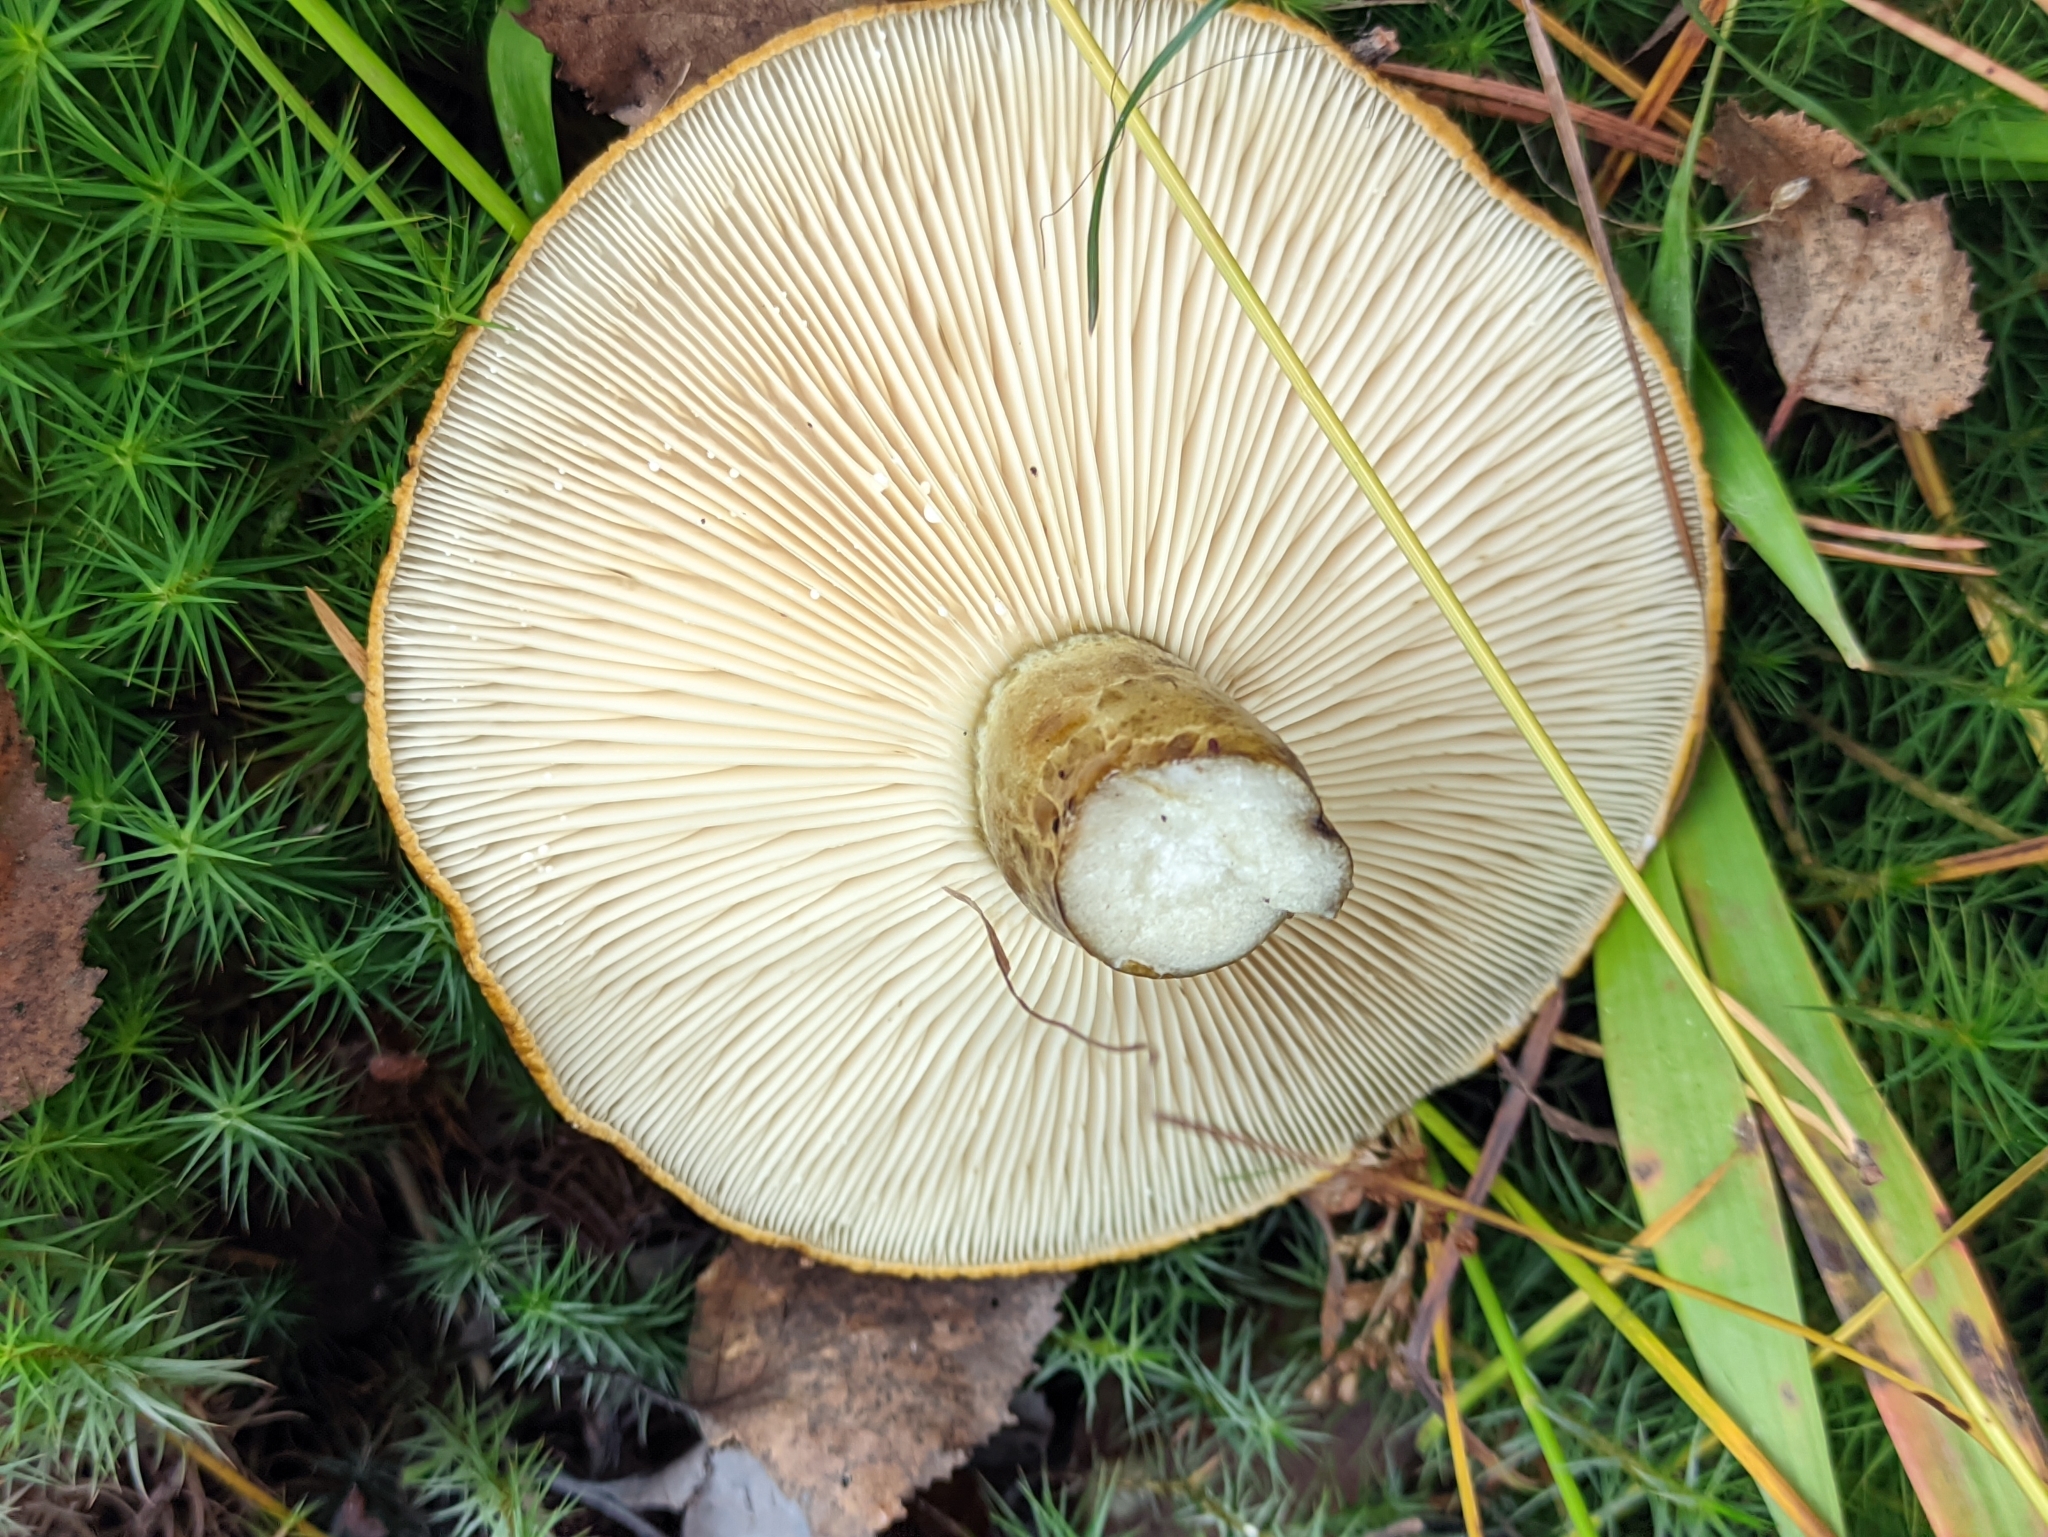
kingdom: Fungi
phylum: Basidiomycota
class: Agaricomycetes
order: Russulales
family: Russulaceae
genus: Lactarius
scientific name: Lactarius turpis
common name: Ugly milk-cap
